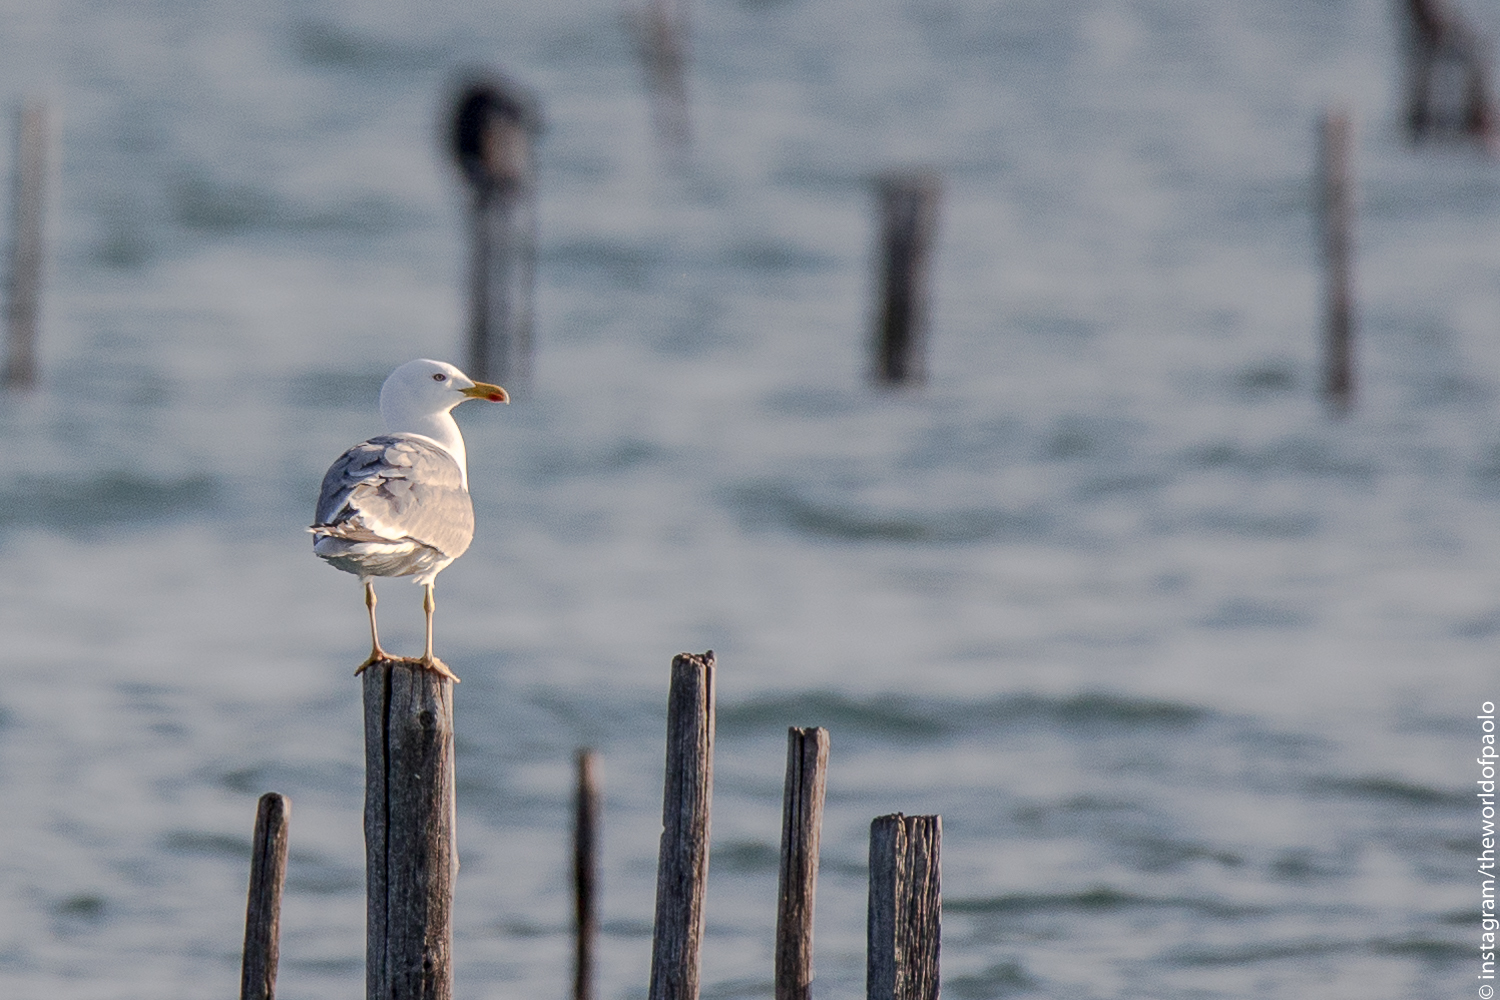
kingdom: Animalia
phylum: Chordata
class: Aves
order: Charadriiformes
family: Laridae
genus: Larus
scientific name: Larus michahellis
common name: Yellow-legged gull
